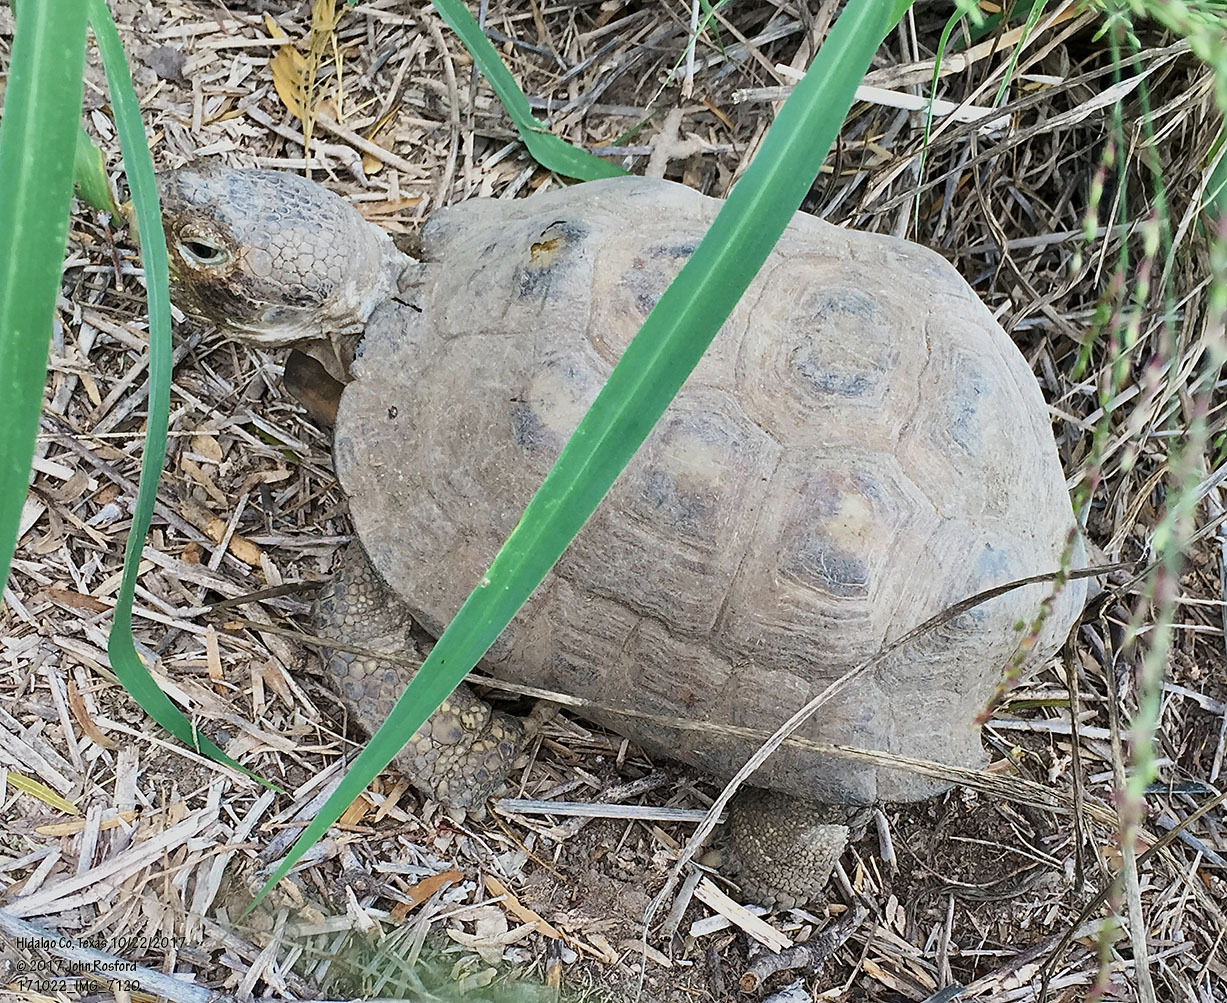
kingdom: Animalia
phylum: Chordata
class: Testudines
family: Testudinidae
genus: Gopherus
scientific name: Gopherus berlandieri
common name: Texas (gopher )tortoise
